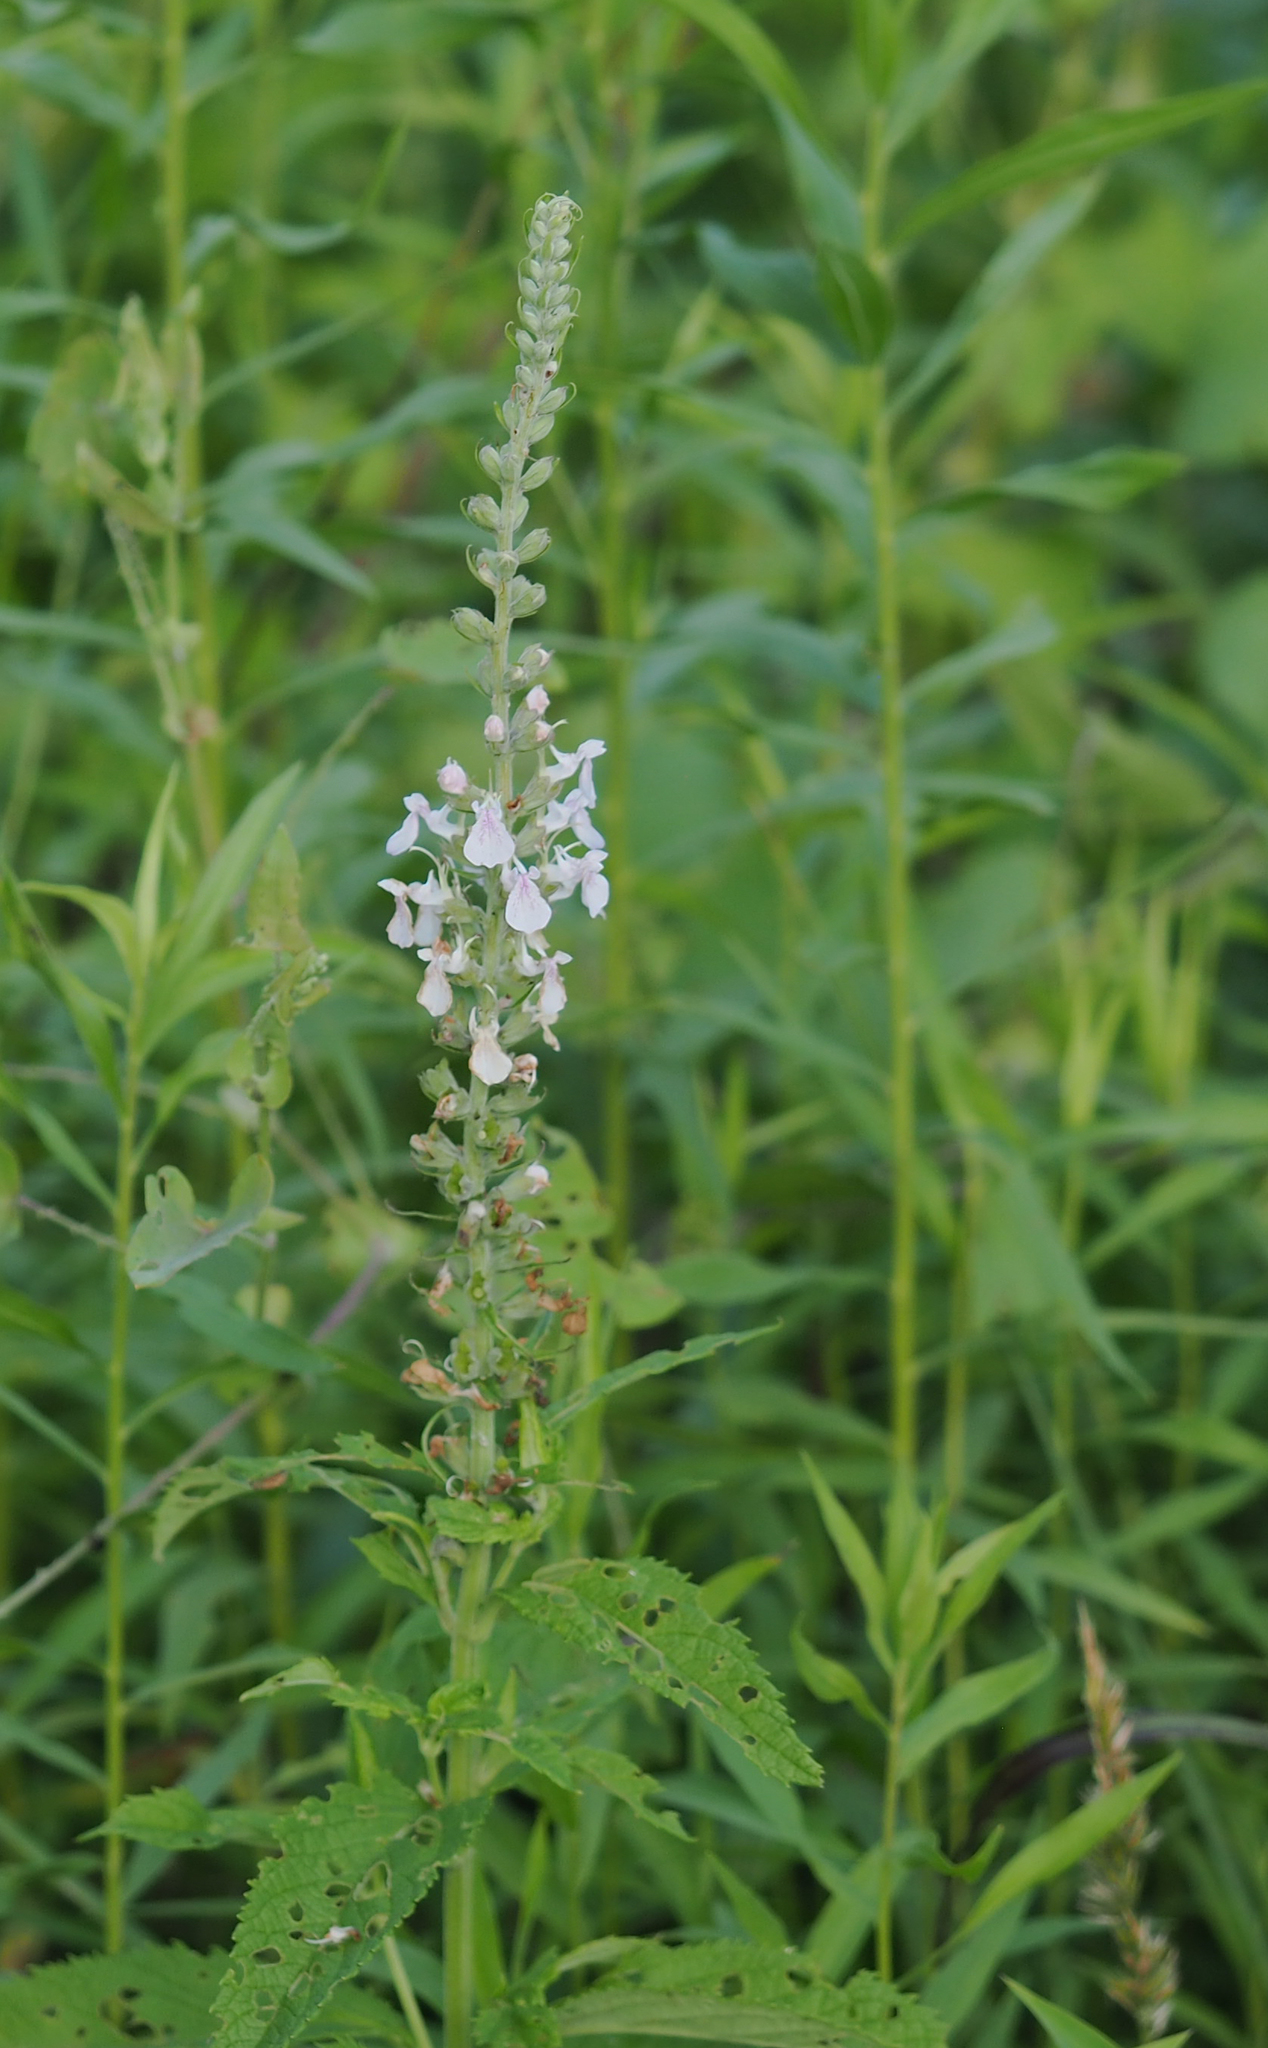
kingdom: Plantae
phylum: Tracheophyta
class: Magnoliopsida
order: Lamiales
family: Lamiaceae
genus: Teucrium
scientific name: Teucrium canadense
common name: American germander
